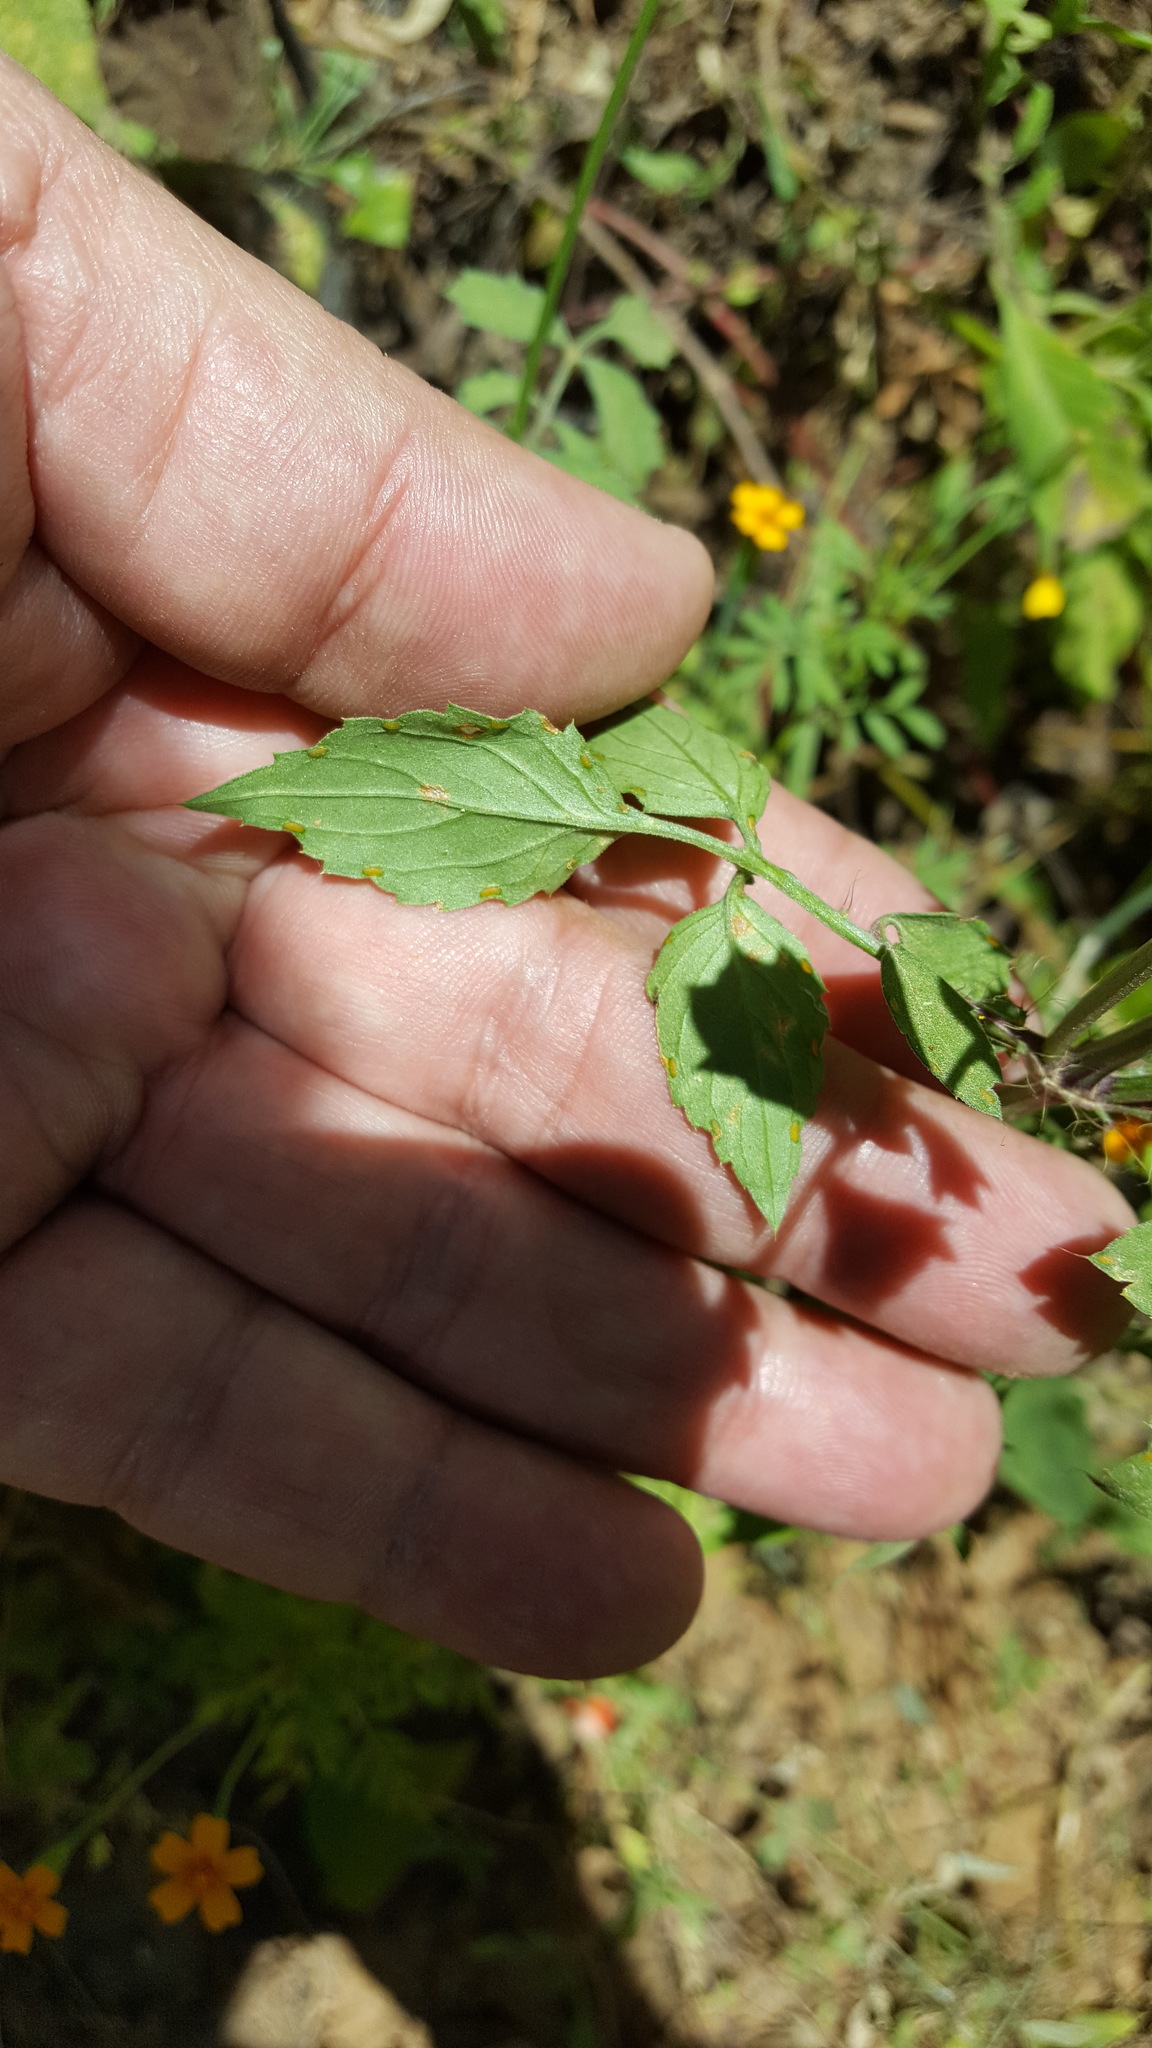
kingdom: Plantae
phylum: Tracheophyta
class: Magnoliopsida
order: Asterales
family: Asteraceae
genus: Adenophyllum
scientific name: Adenophyllum glandulosum
